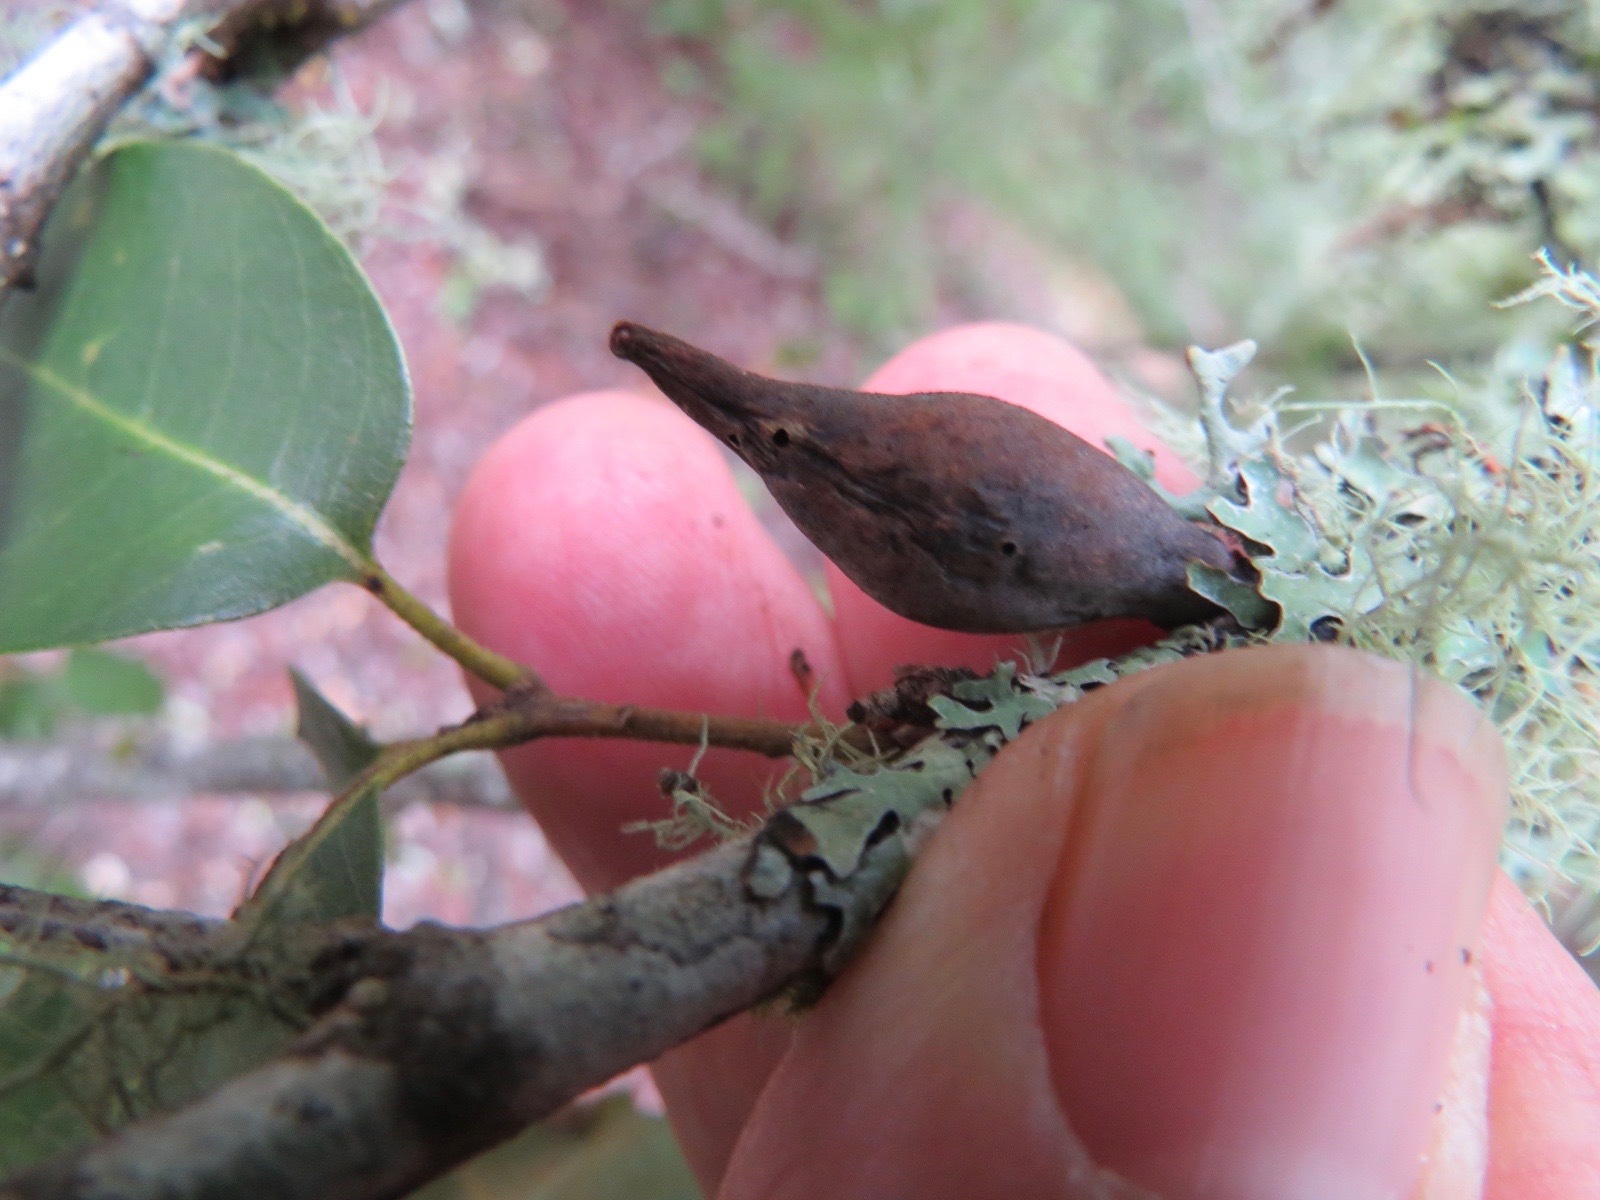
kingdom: Animalia
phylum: Arthropoda
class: Insecta
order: Hymenoptera
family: Cynipidae
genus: Heteroecus
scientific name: Heteroecus pacificus
